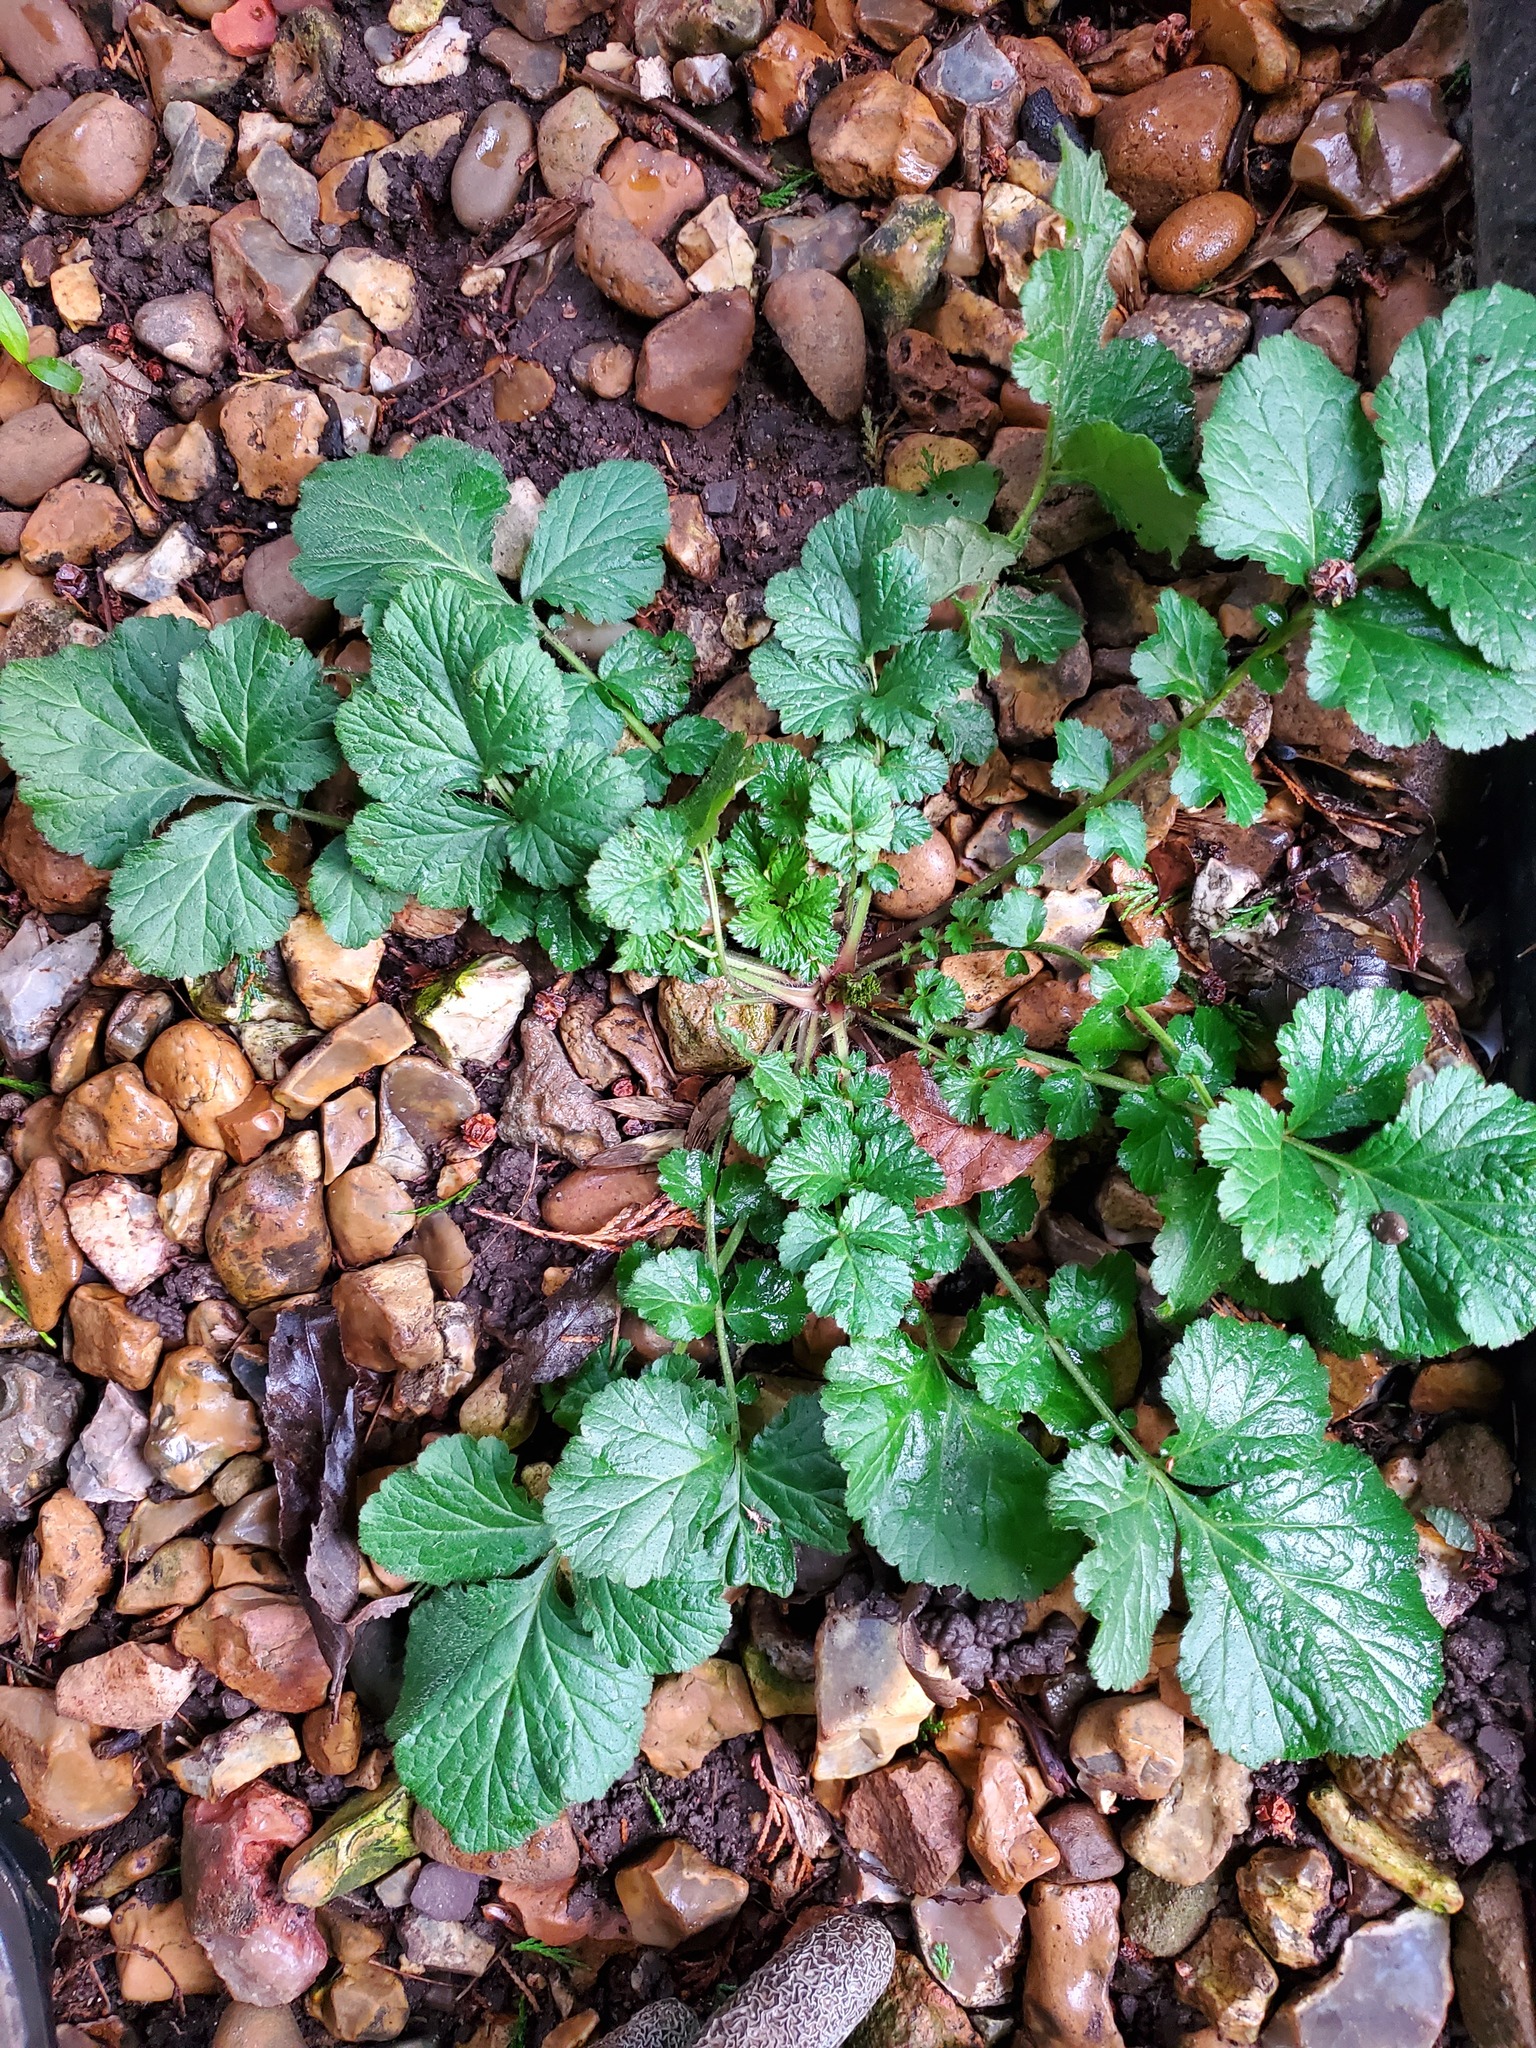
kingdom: Plantae
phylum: Tracheophyta
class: Magnoliopsida
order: Rosales
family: Rosaceae
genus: Geum
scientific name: Geum urbanum
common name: Wood avens
